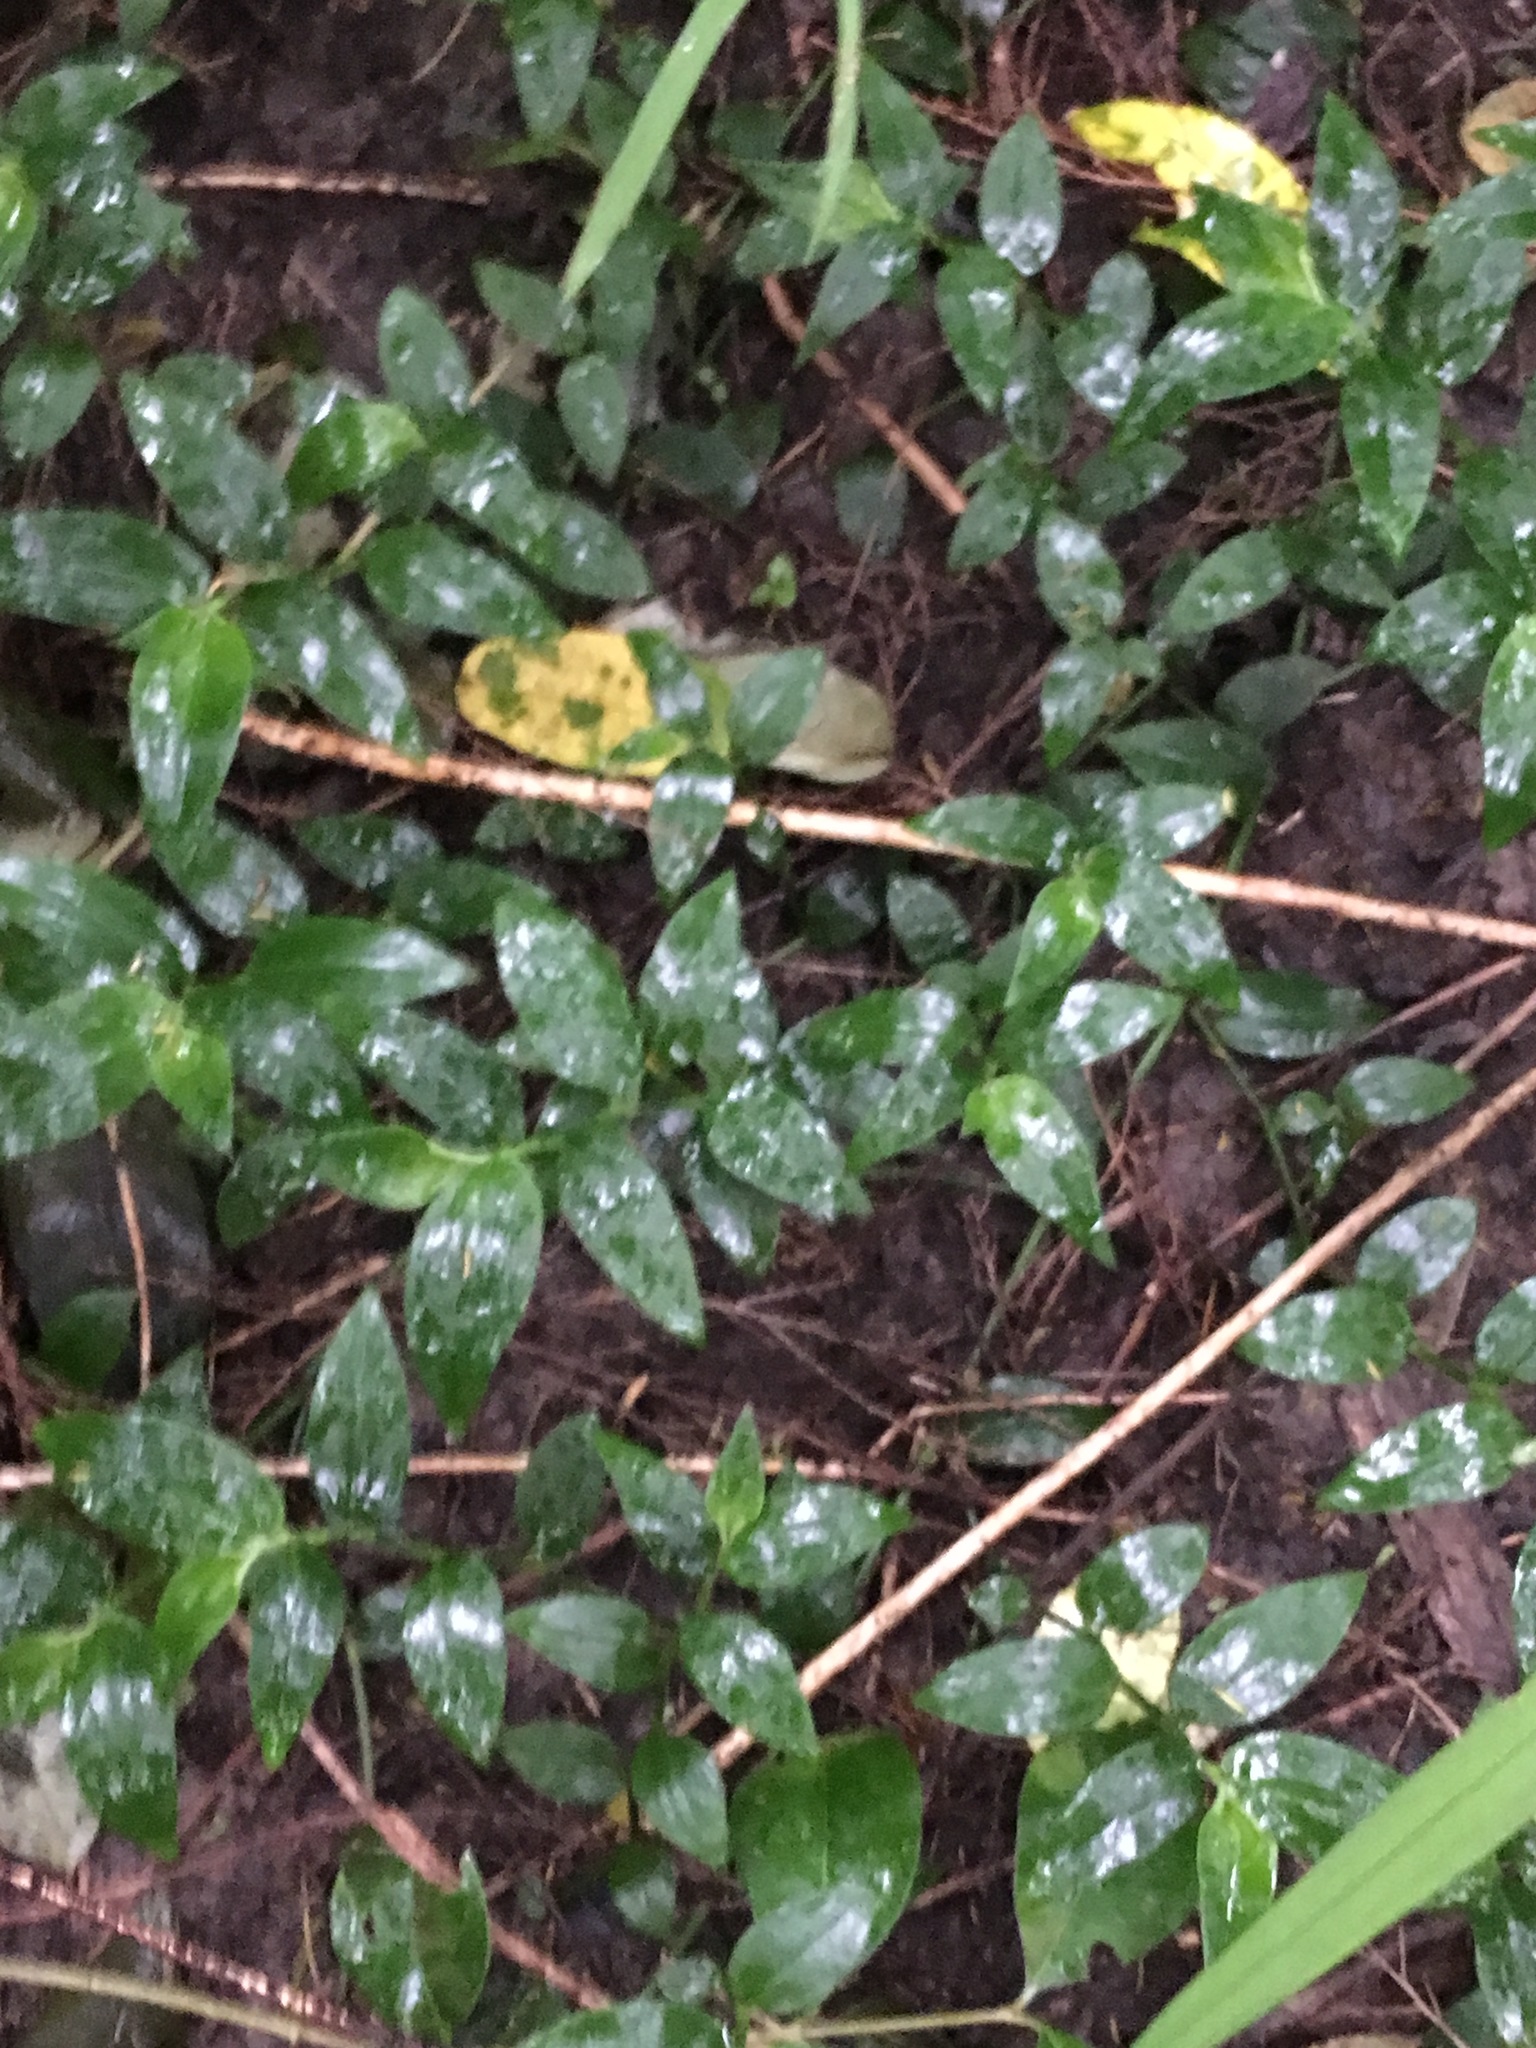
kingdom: Plantae
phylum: Tracheophyta
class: Liliopsida
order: Commelinales
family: Commelinaceae
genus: Tradescantia
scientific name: Tradescantia fluminensis
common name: Wandering-jew
